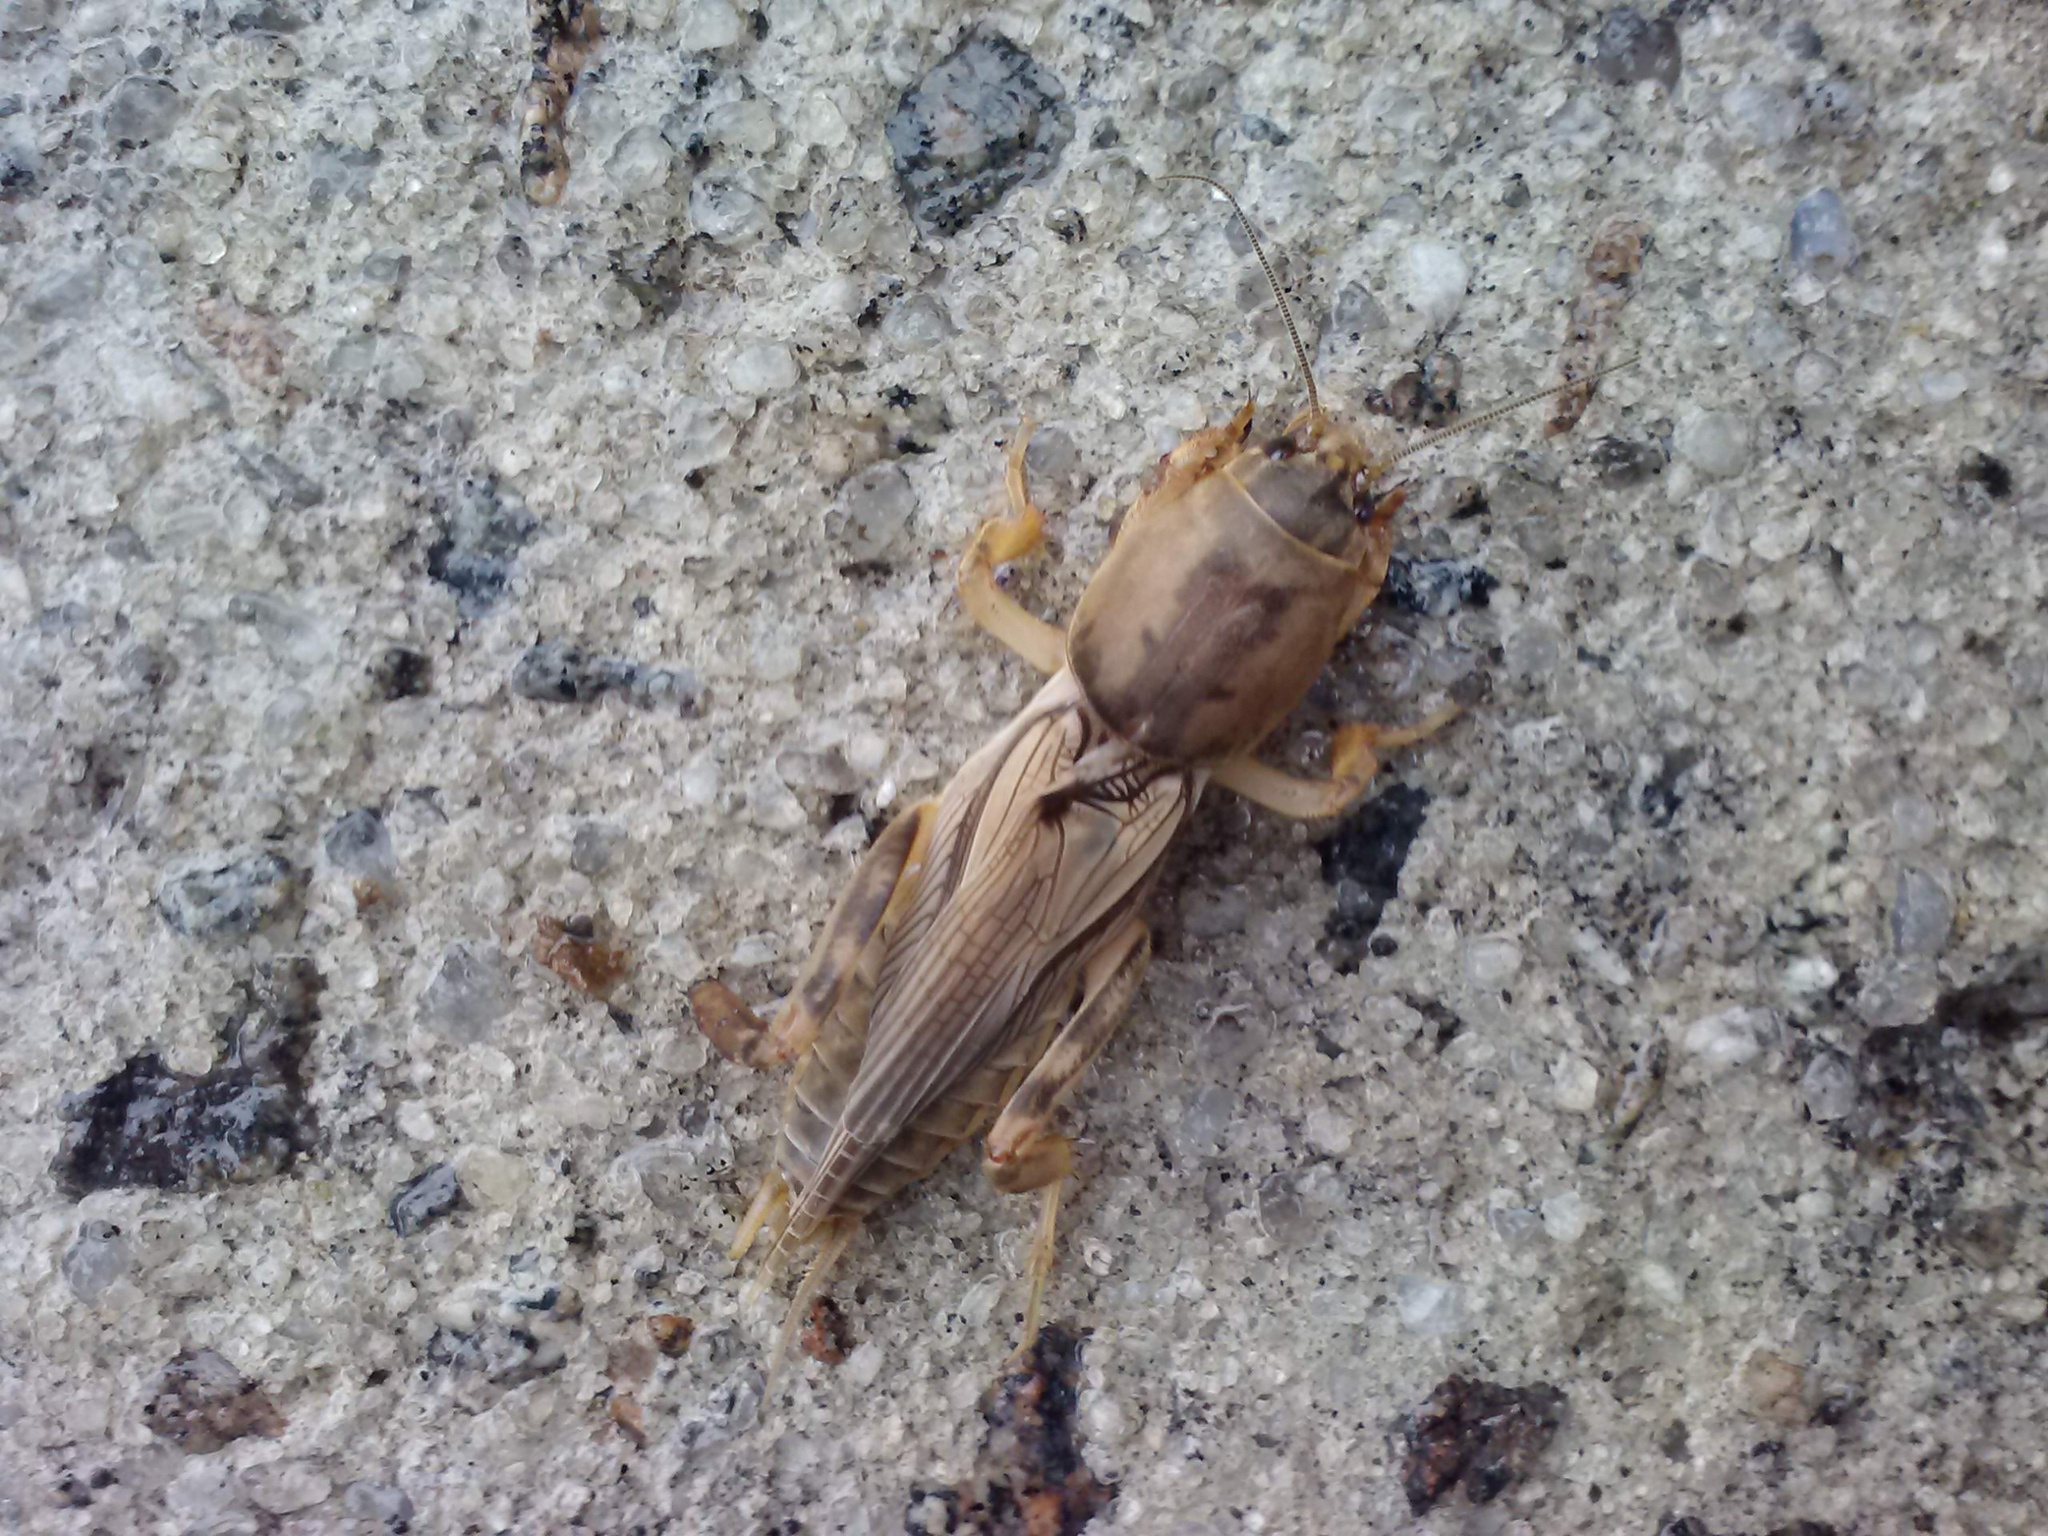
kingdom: Animalia
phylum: Arthropoda
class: Insecta
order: Orthoptera
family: Gryllotalpidae
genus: Neoscapteriscus
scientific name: Neoscapteriscus vicinus
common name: Tawny mole cricket
